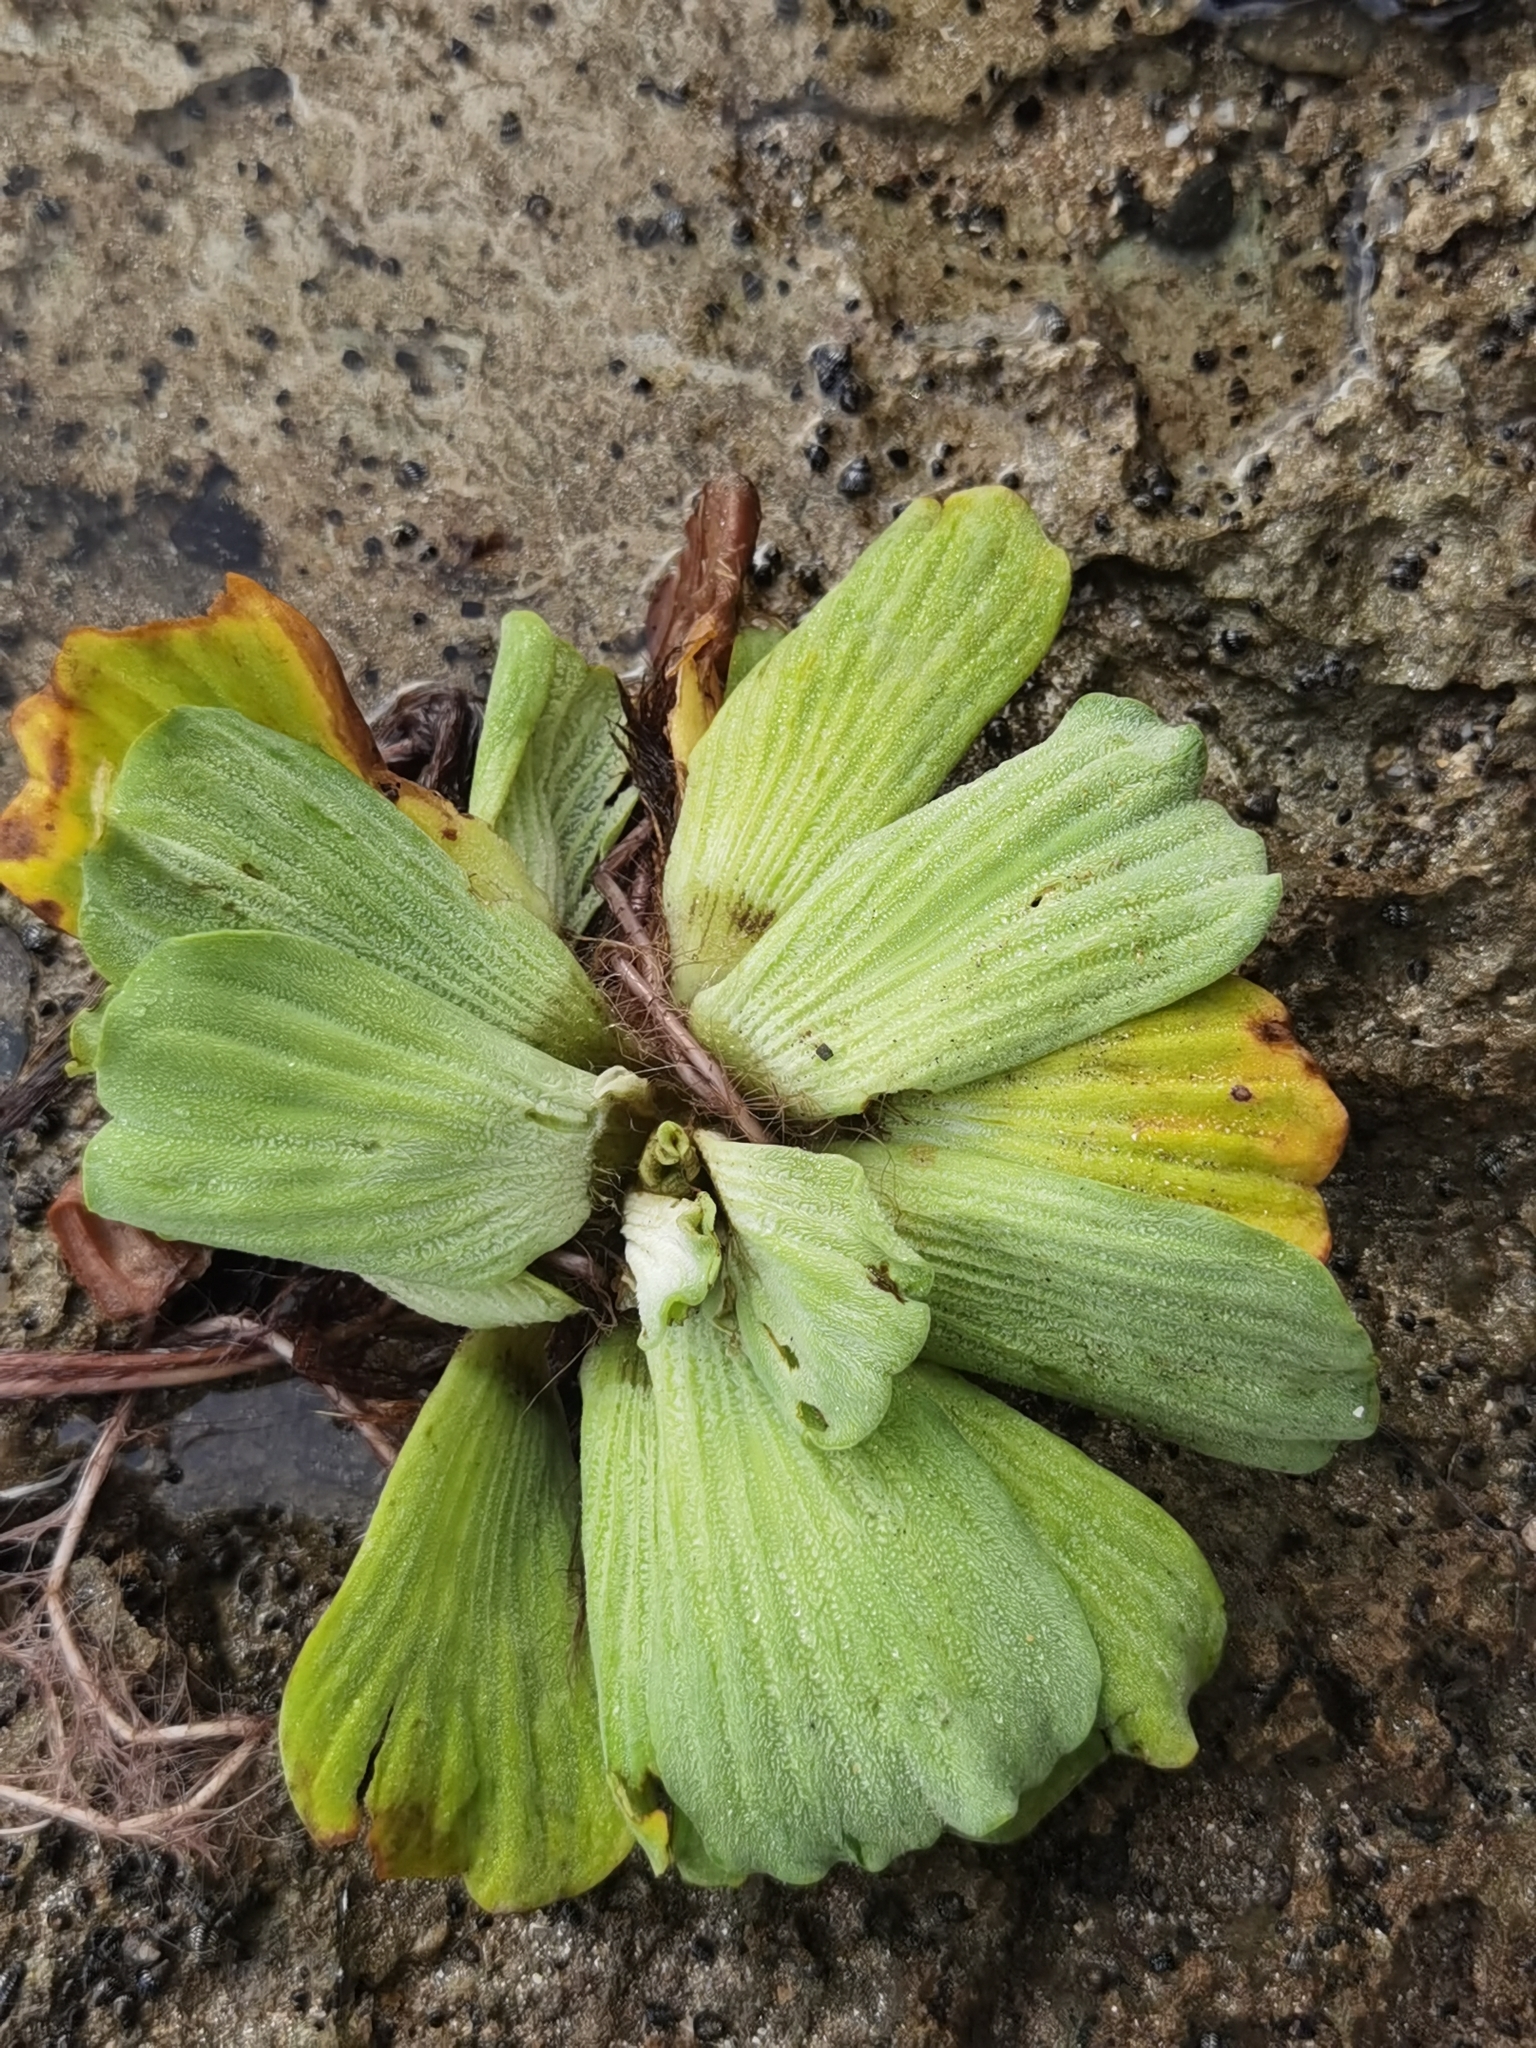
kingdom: Plantae
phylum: Tracheophyta
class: Liliopsida
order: Alismatales
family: Araceae
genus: Pistia
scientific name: Pistia stratiotes
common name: Water lettuce
